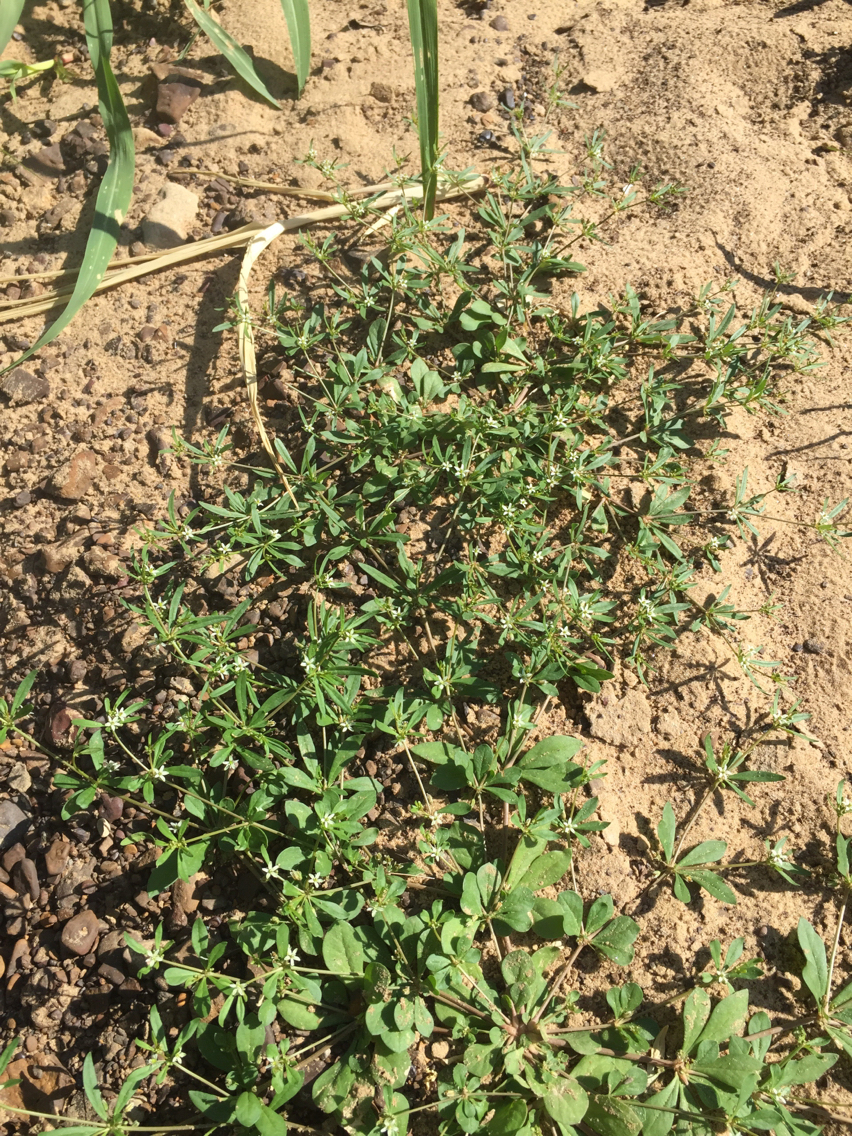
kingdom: Plantae
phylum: Tracheophyta
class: Magnoliopsida
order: Caryophyllales
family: Molluginaceae
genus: Mollugo
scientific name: Mollugo verticillata
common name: Green carpetweed
